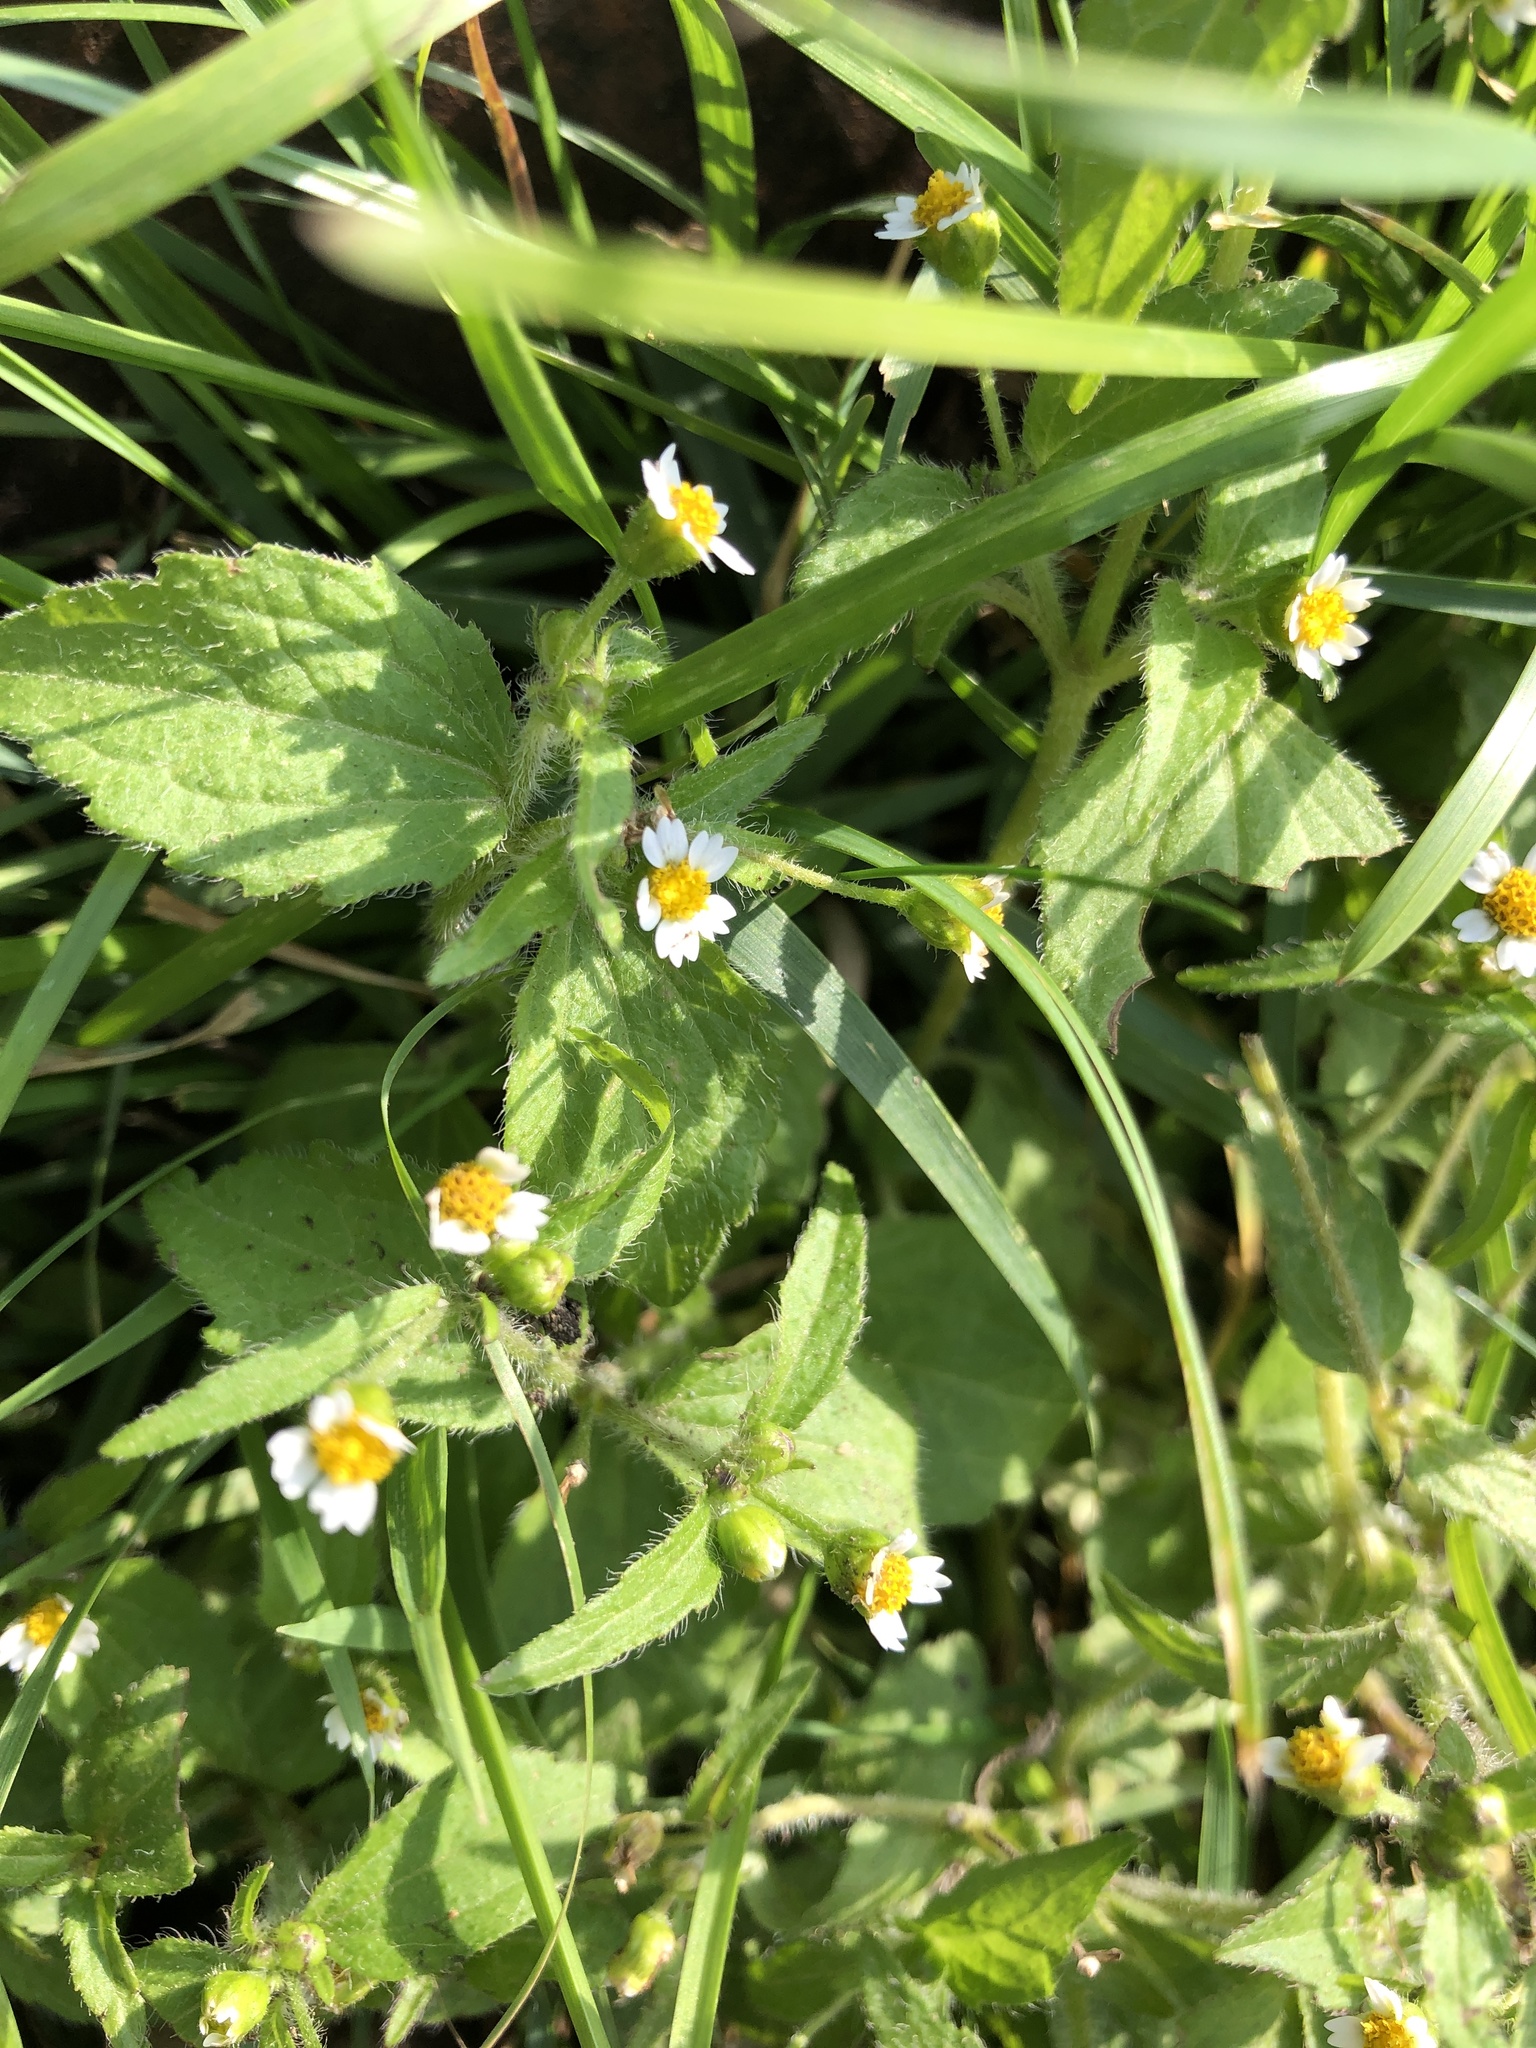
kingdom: Plantae
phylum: Tracheophyta
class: Magnoliopsida
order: Asterales
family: Asteraceae
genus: Galinsoga
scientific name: Galinsoga quadriradiata
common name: Shaggy soldier
